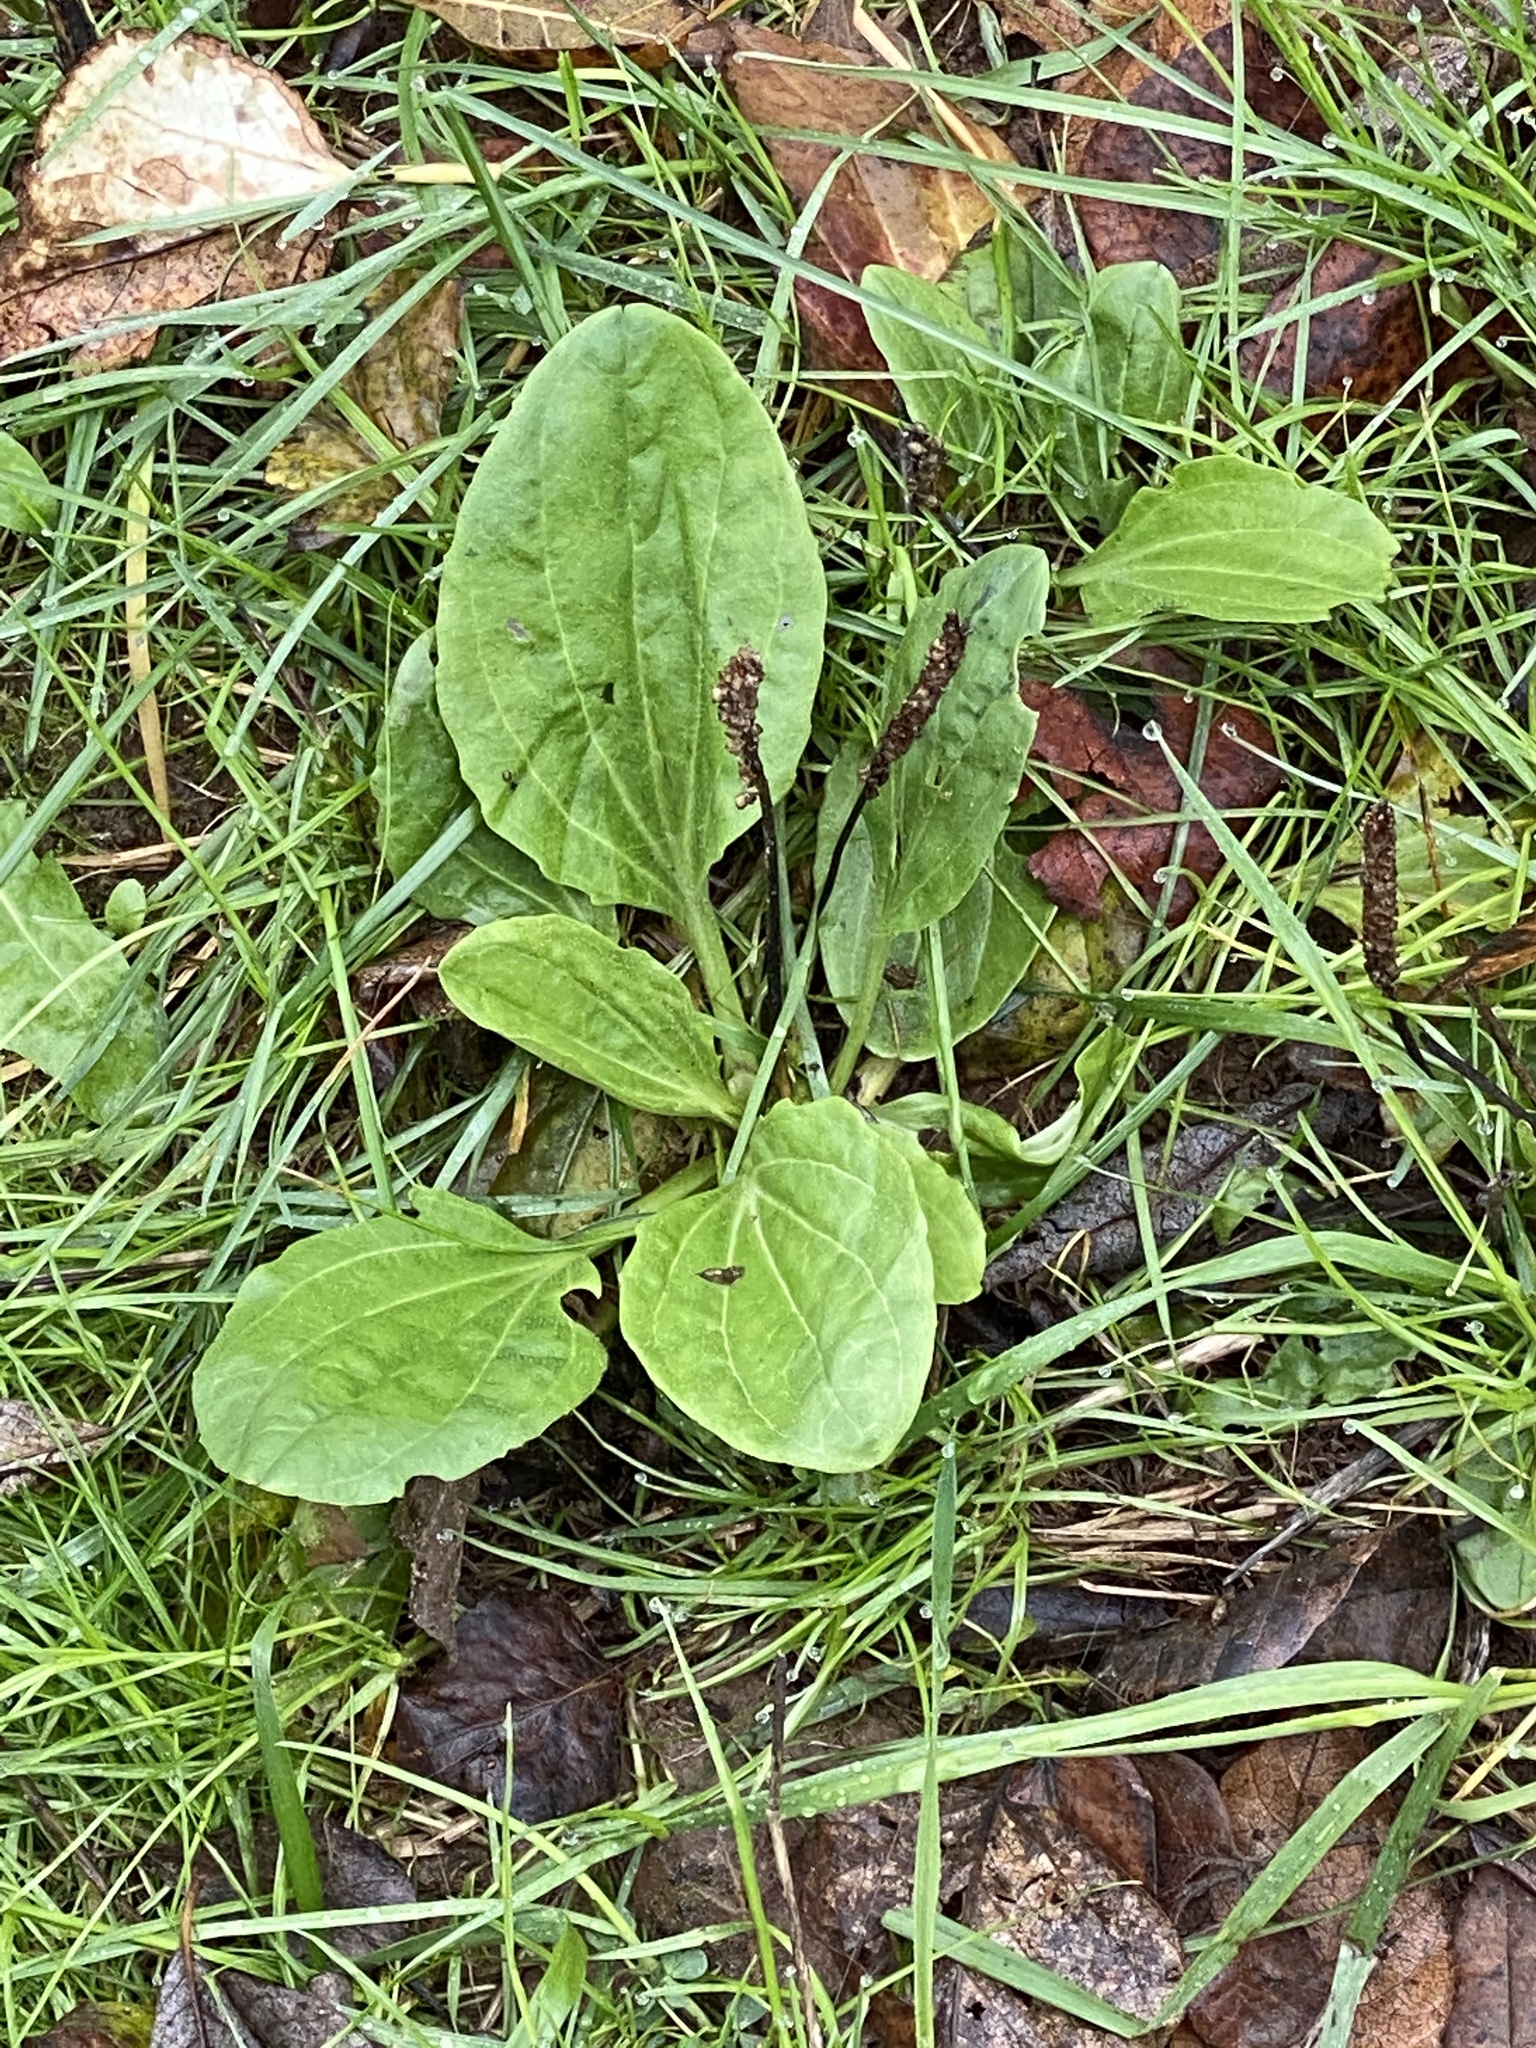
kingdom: Plantae
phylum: Tracheophyta
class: Magnoliopsida
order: Lamiales
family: Plantaginaceae
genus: Plantago
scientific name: Plantago major
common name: Common plantain
